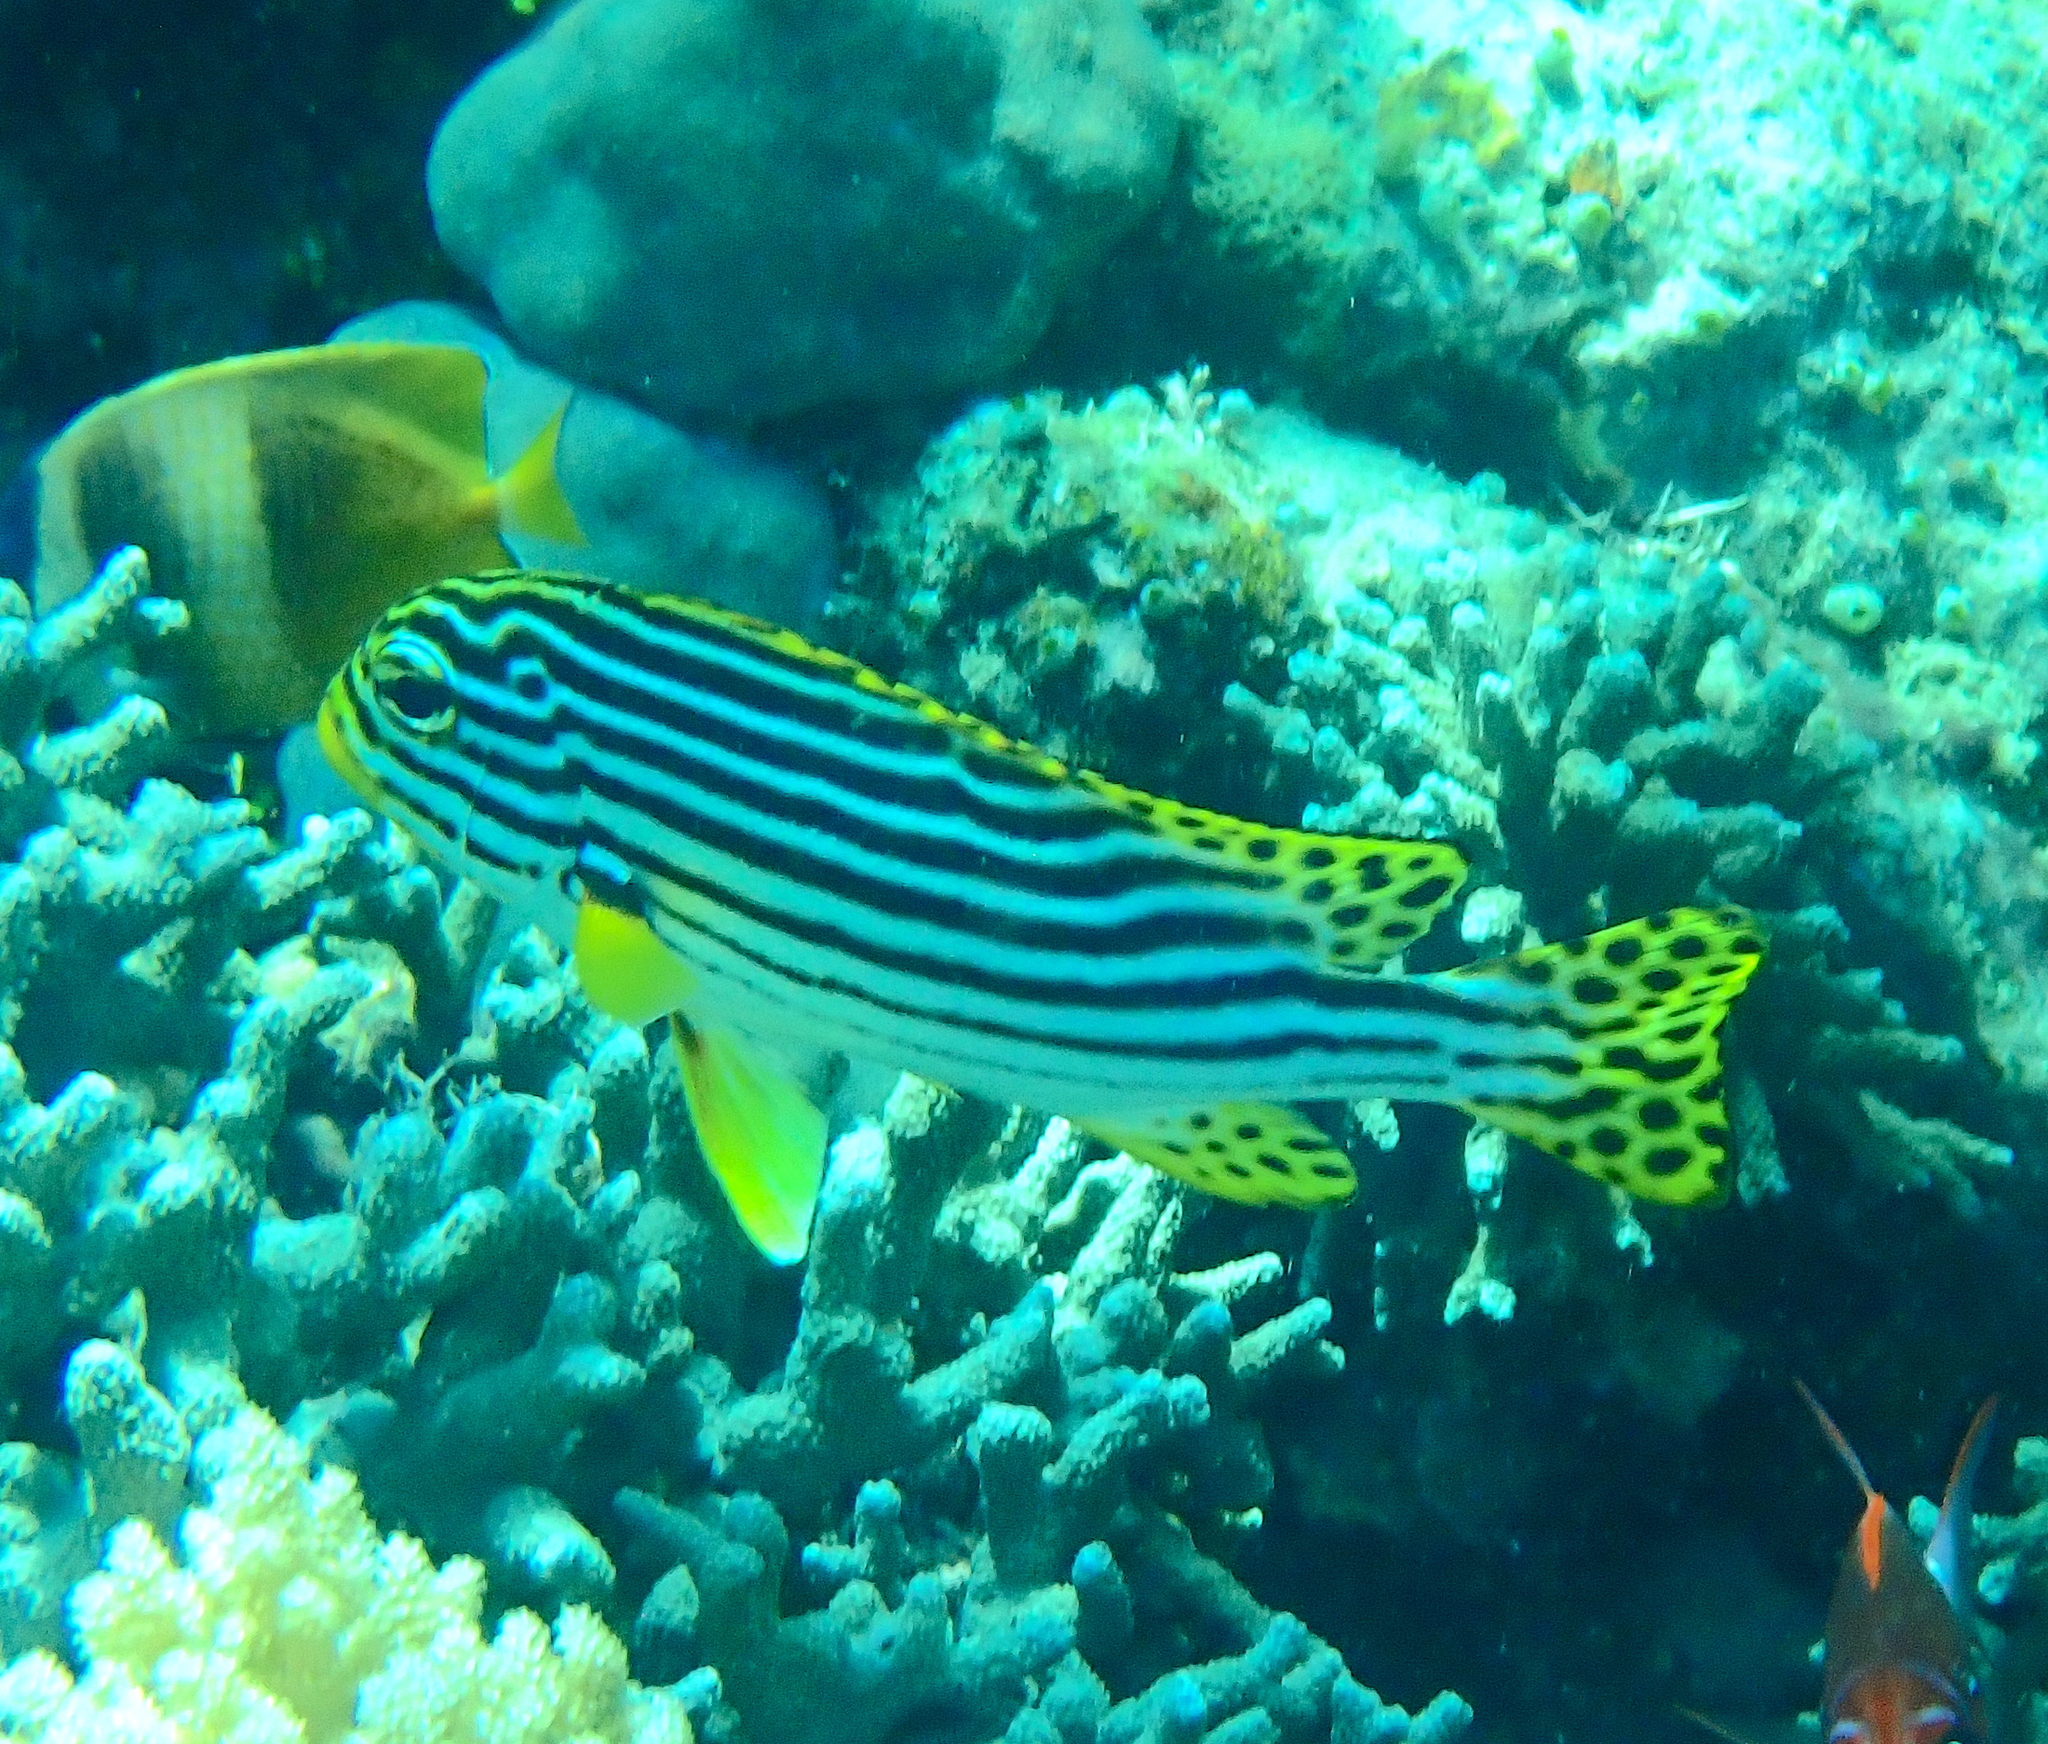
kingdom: Animalia
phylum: Chordata
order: Perciformes
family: Haemulidae
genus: Plectorhinchus
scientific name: Plectorhinchus vittatus
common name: Oriental sweetlips
